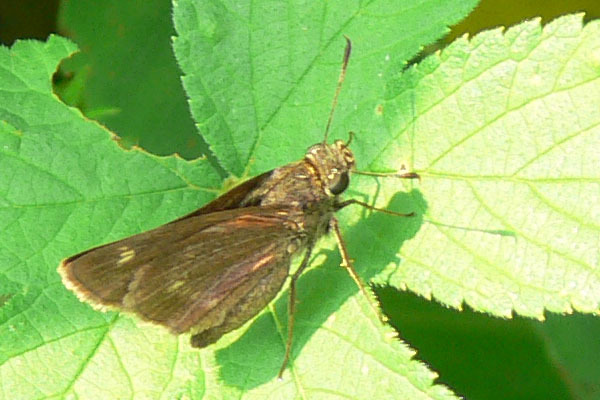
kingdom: Animalia
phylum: Arthropoda
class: Insecta
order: Lepidoptera
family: Hesperiidae
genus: Vernia
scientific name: Vernia verna
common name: Little glassywing
